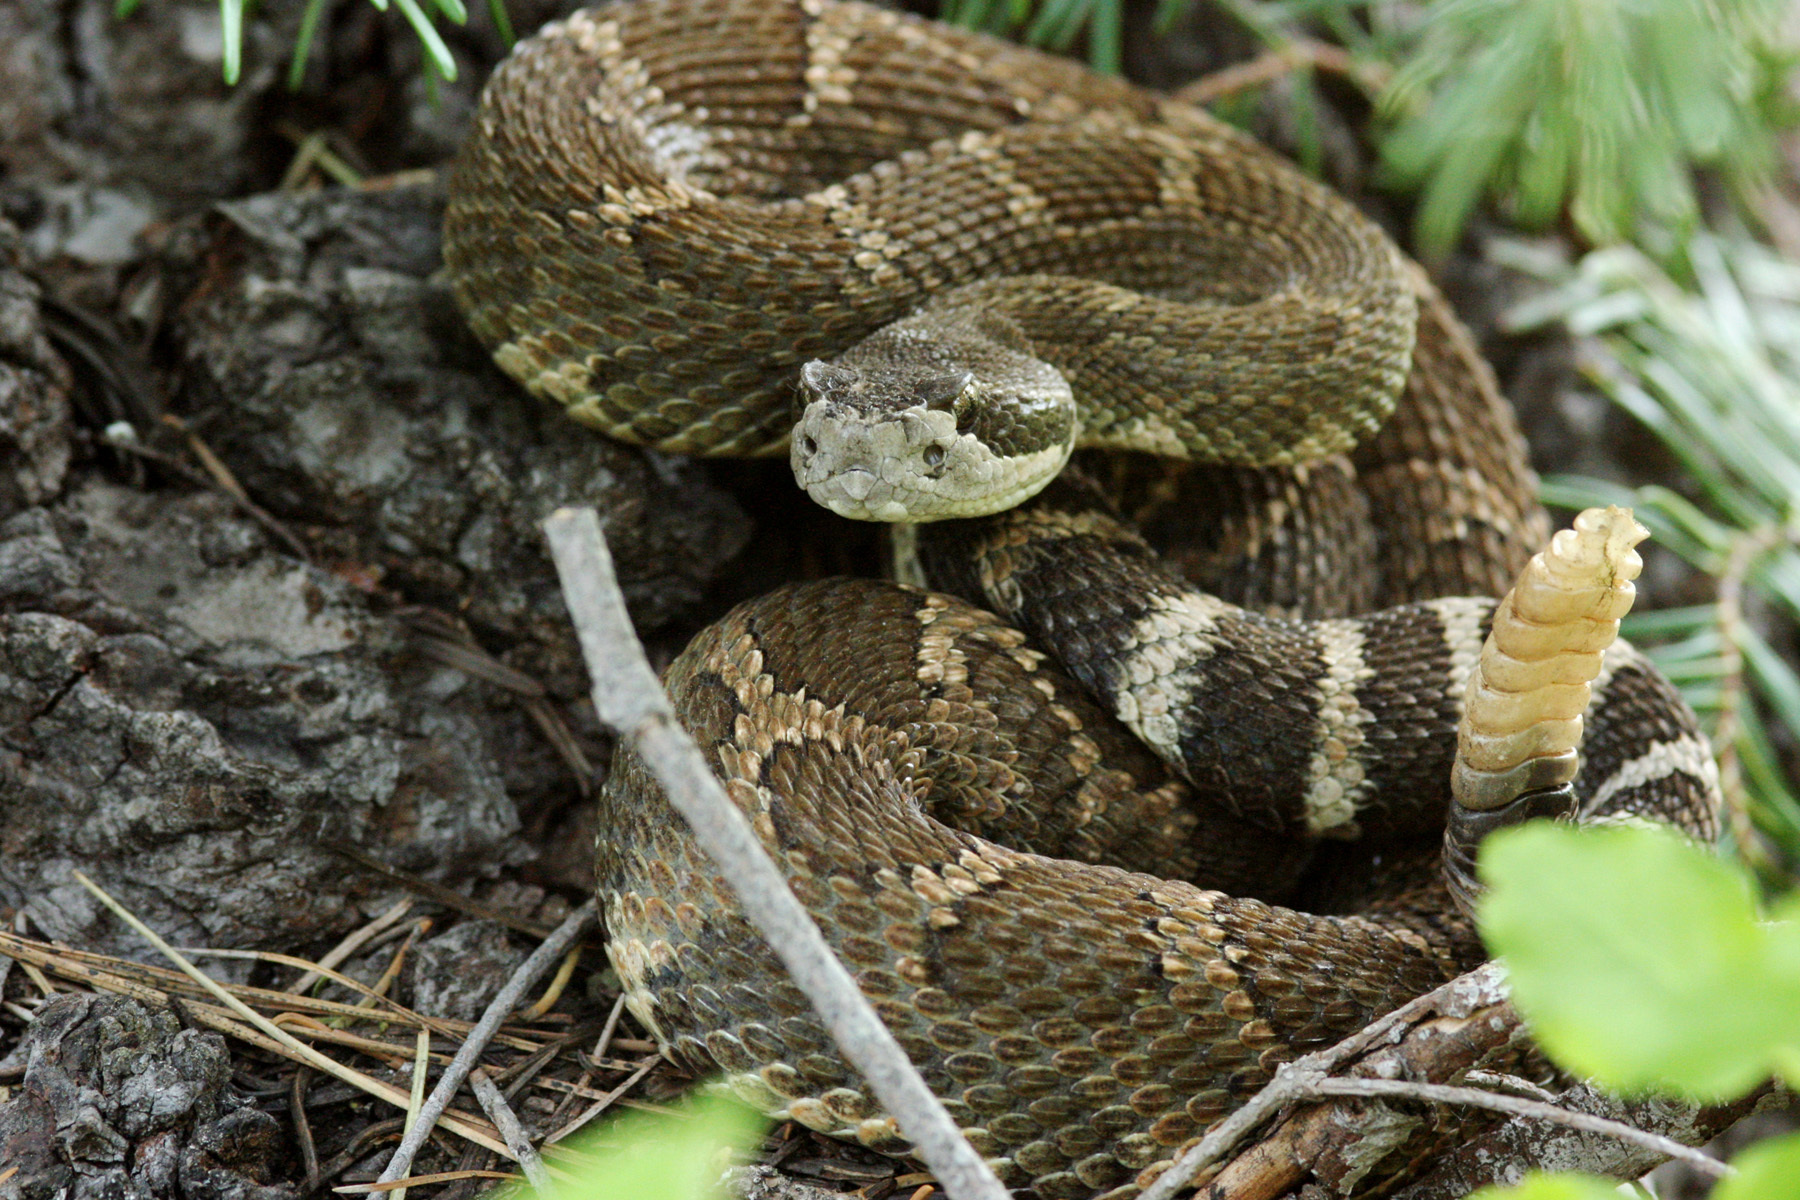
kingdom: Animalia
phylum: Chordata
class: Squamata
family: Viperidae
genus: Crotalus
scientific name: Crotalus oreganus
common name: Abyssus
